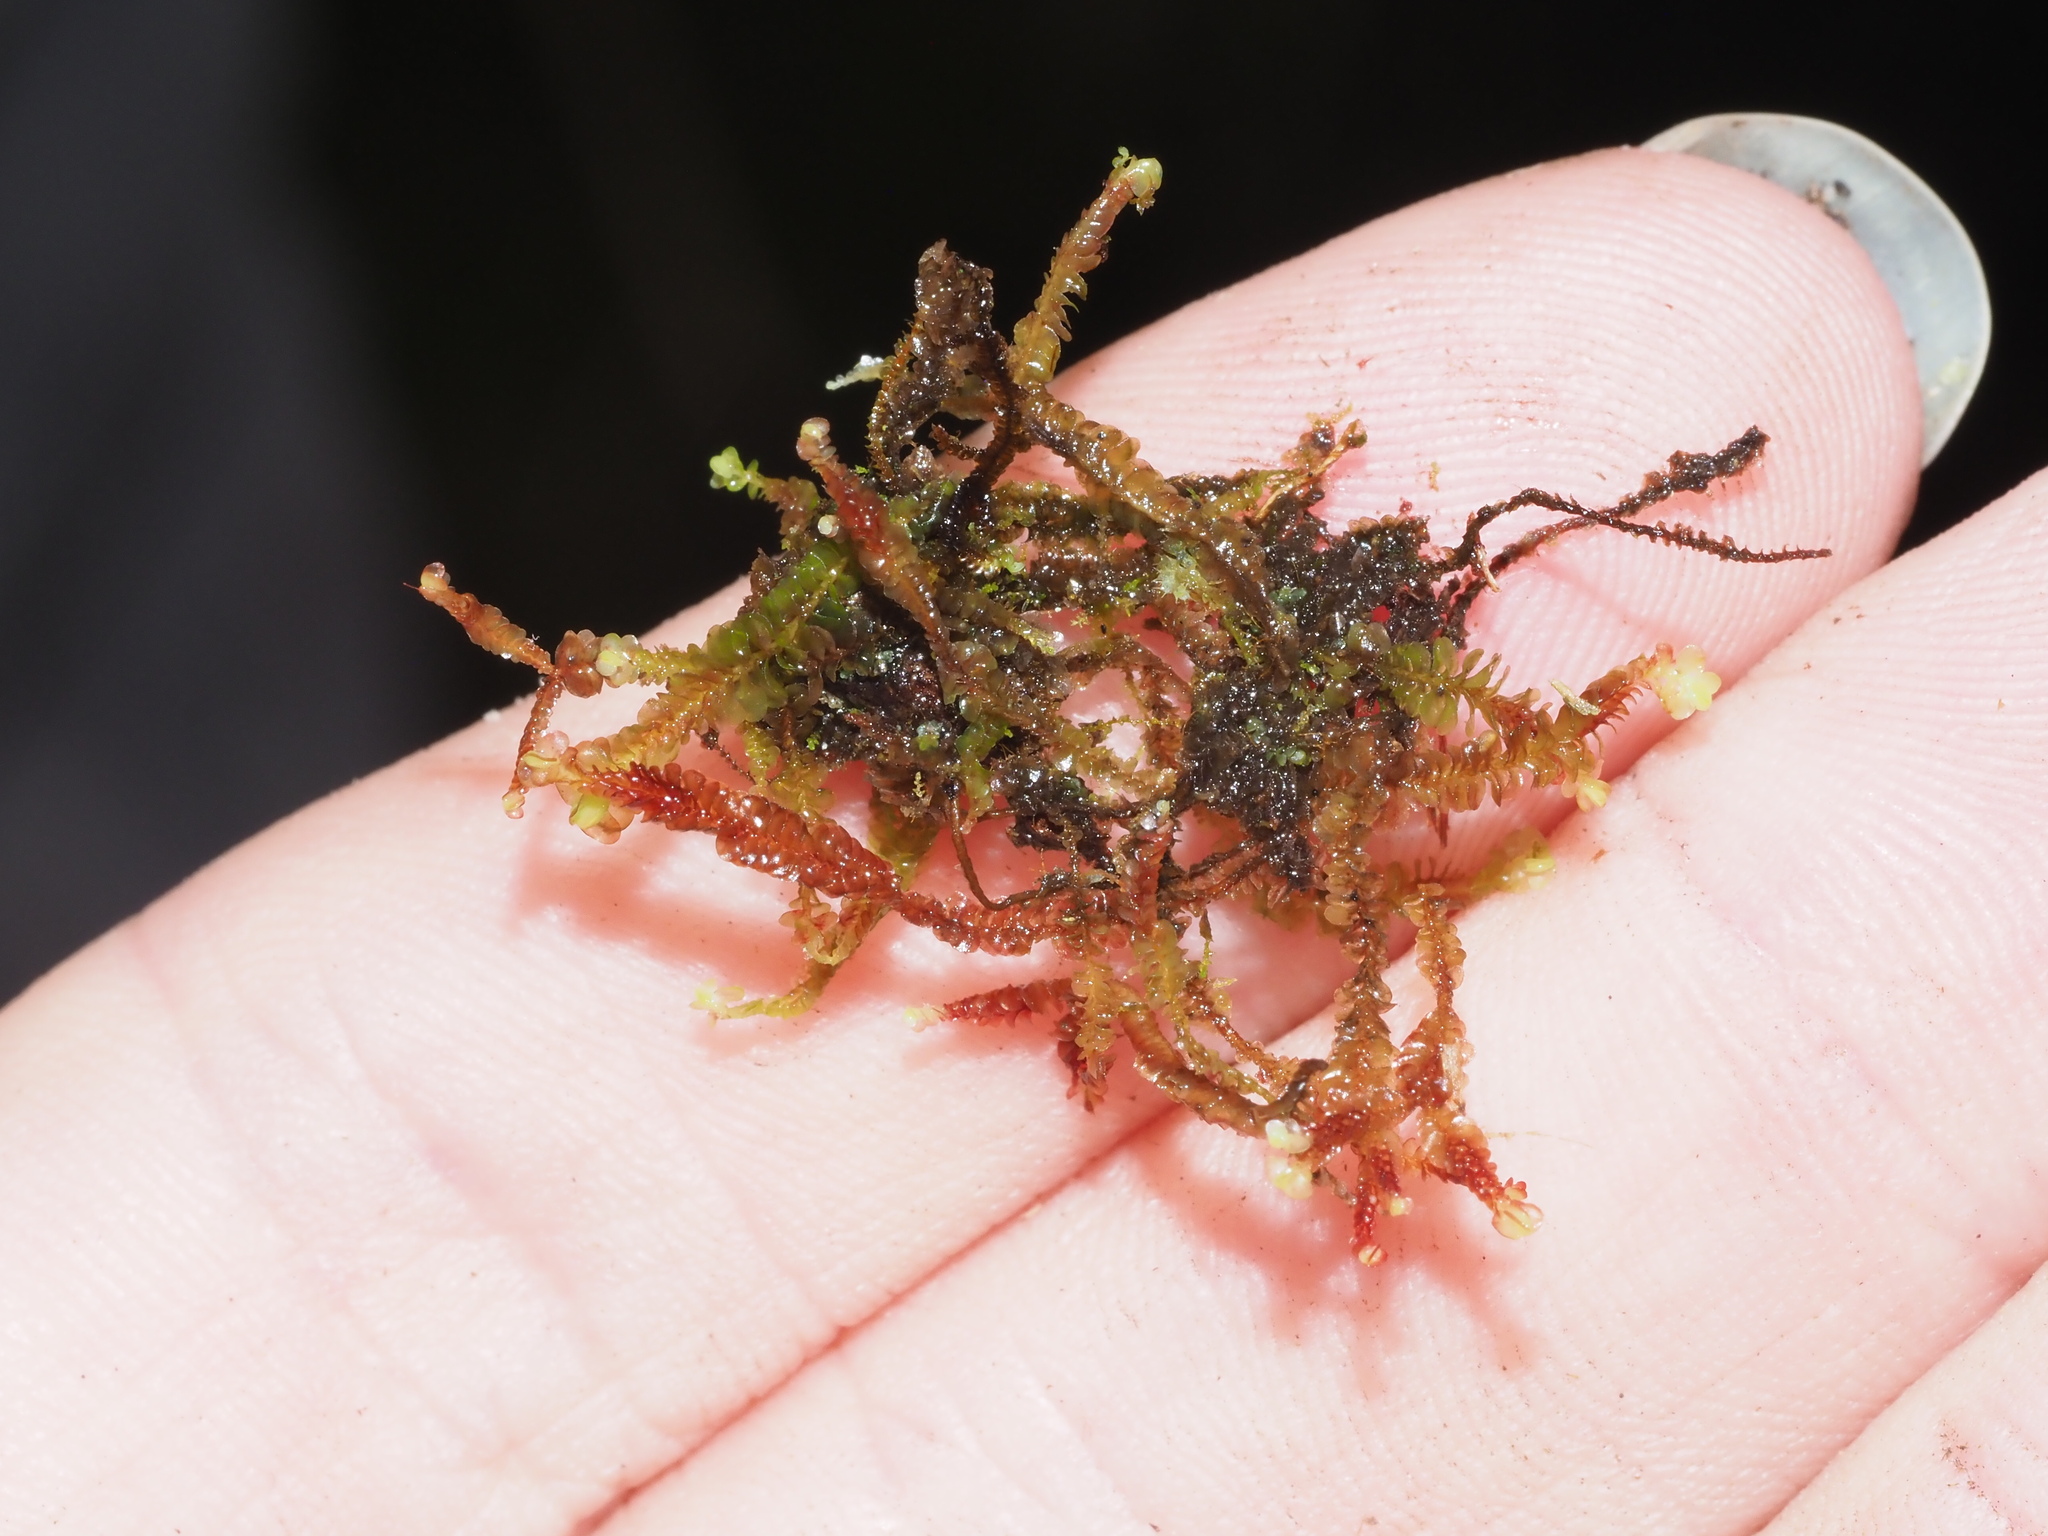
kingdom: Plantae
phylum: Marchantiophyta
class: Jungermanniopsida
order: Jungermanniales
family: Adelanthaceae
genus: Cuspidatula
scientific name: Cuspidatula robusta
